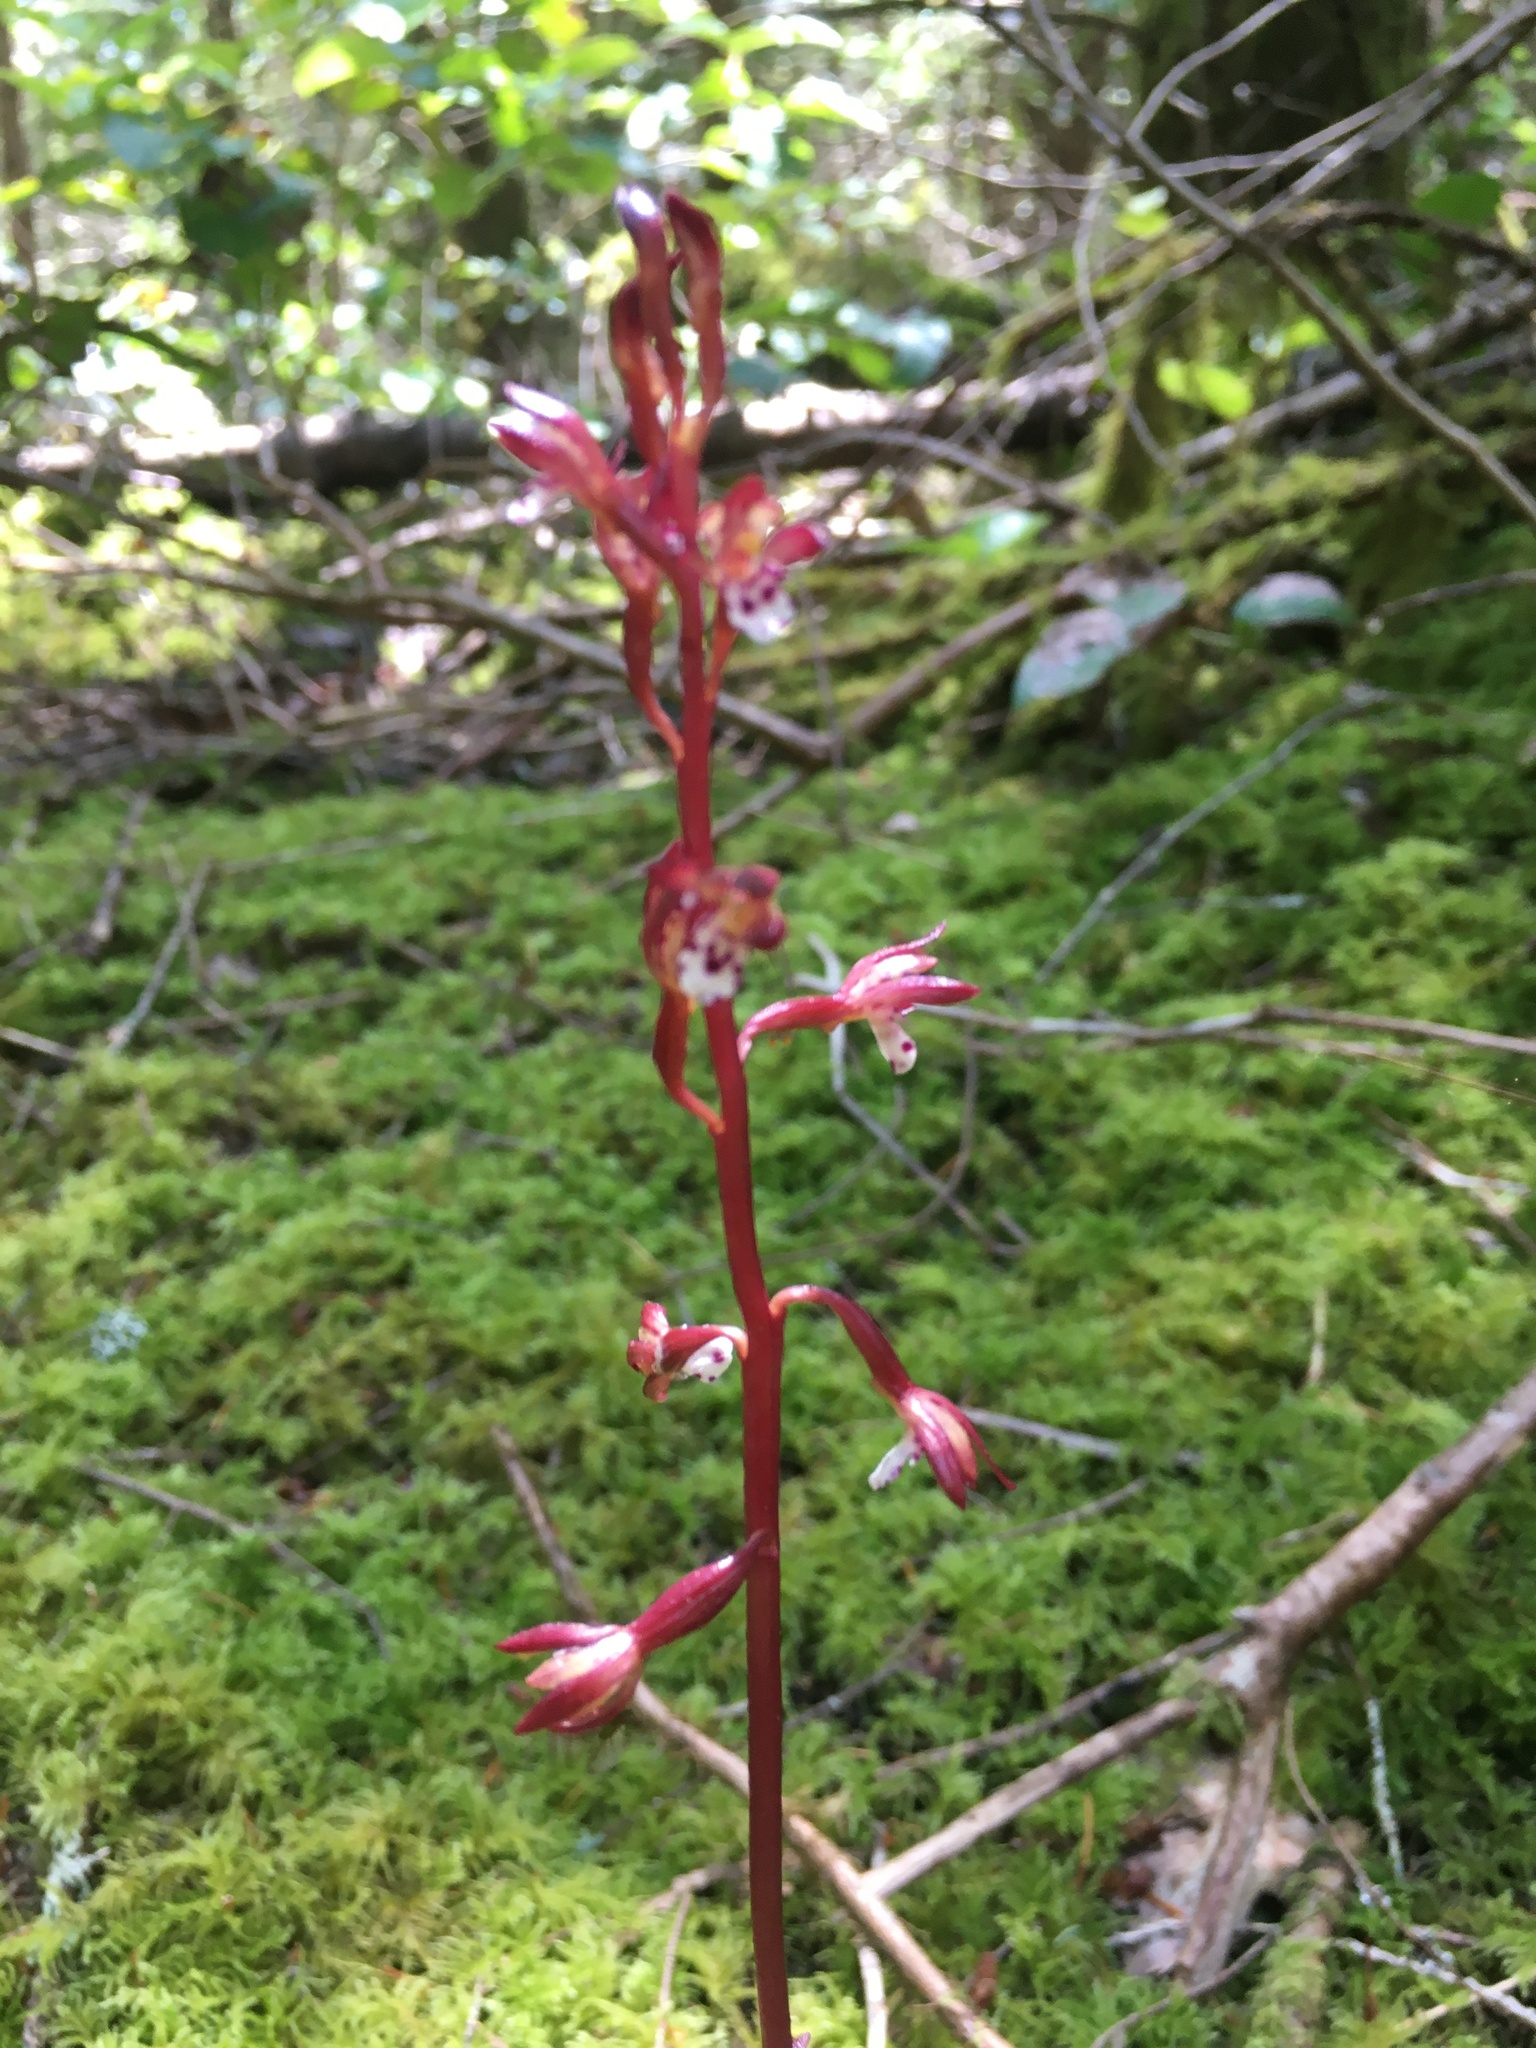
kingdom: Plantae
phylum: Tracheophyta
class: Liliopsida
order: Asparagales
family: Orchidaceae
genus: Corallorhiza
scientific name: Corallorhiza maculata
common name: Spotted coralroot
